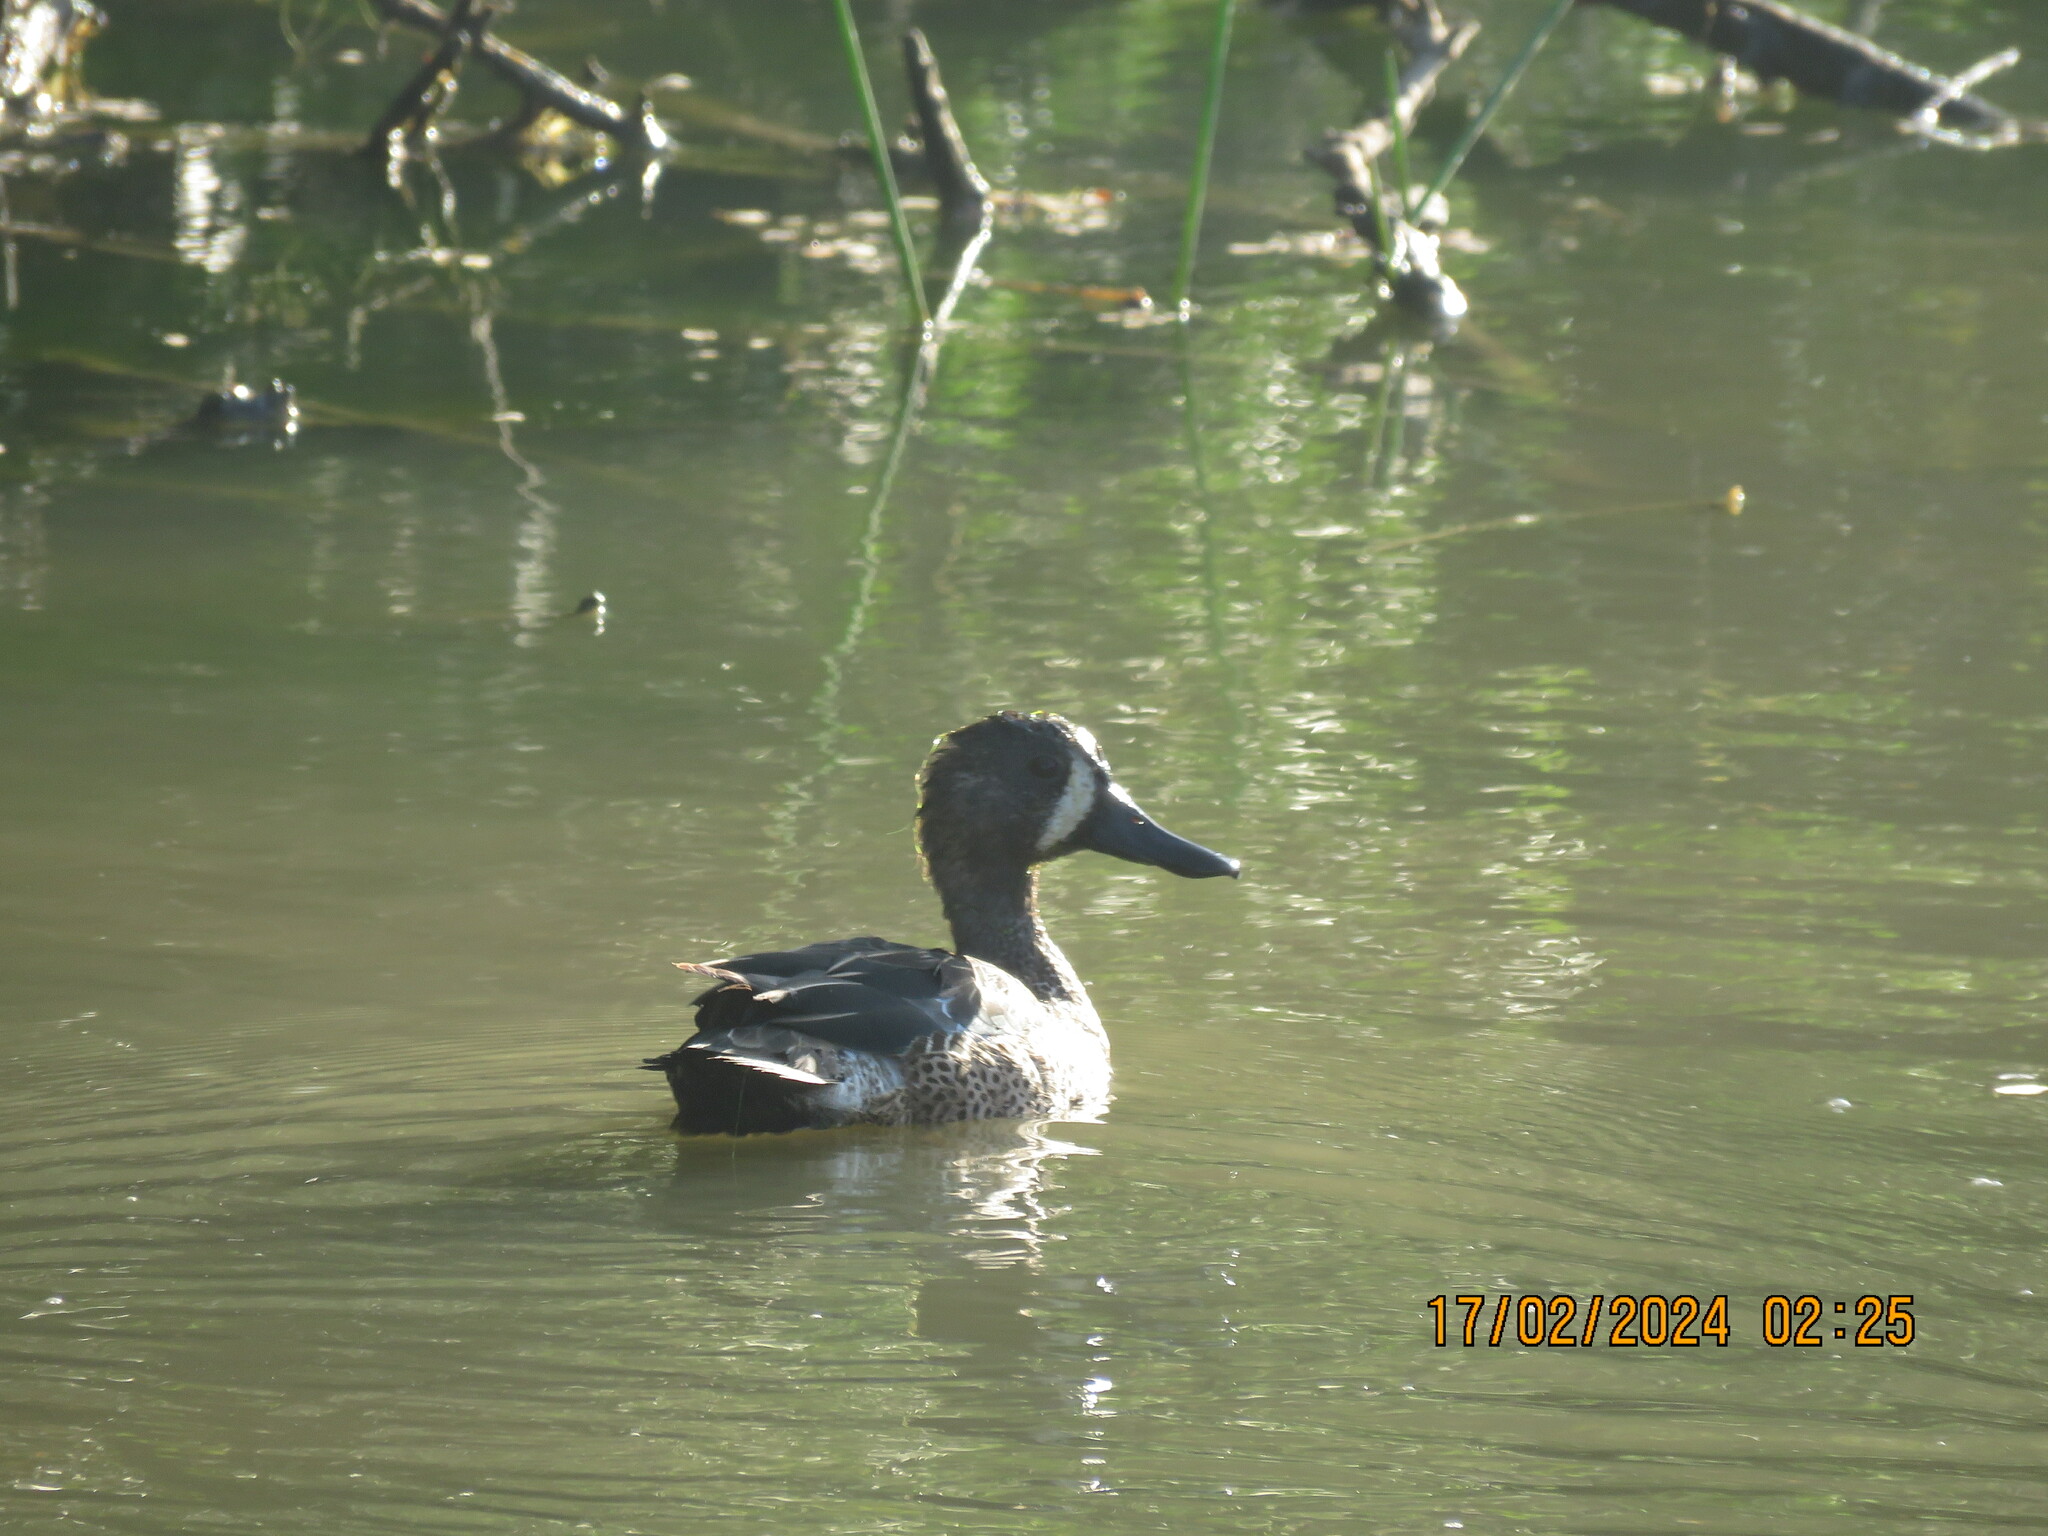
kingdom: Animalia
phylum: Chordata
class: Aves
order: Anseriformes
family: Anatidae
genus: Spatula
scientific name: Spatula discors
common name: Blue-winged teal
